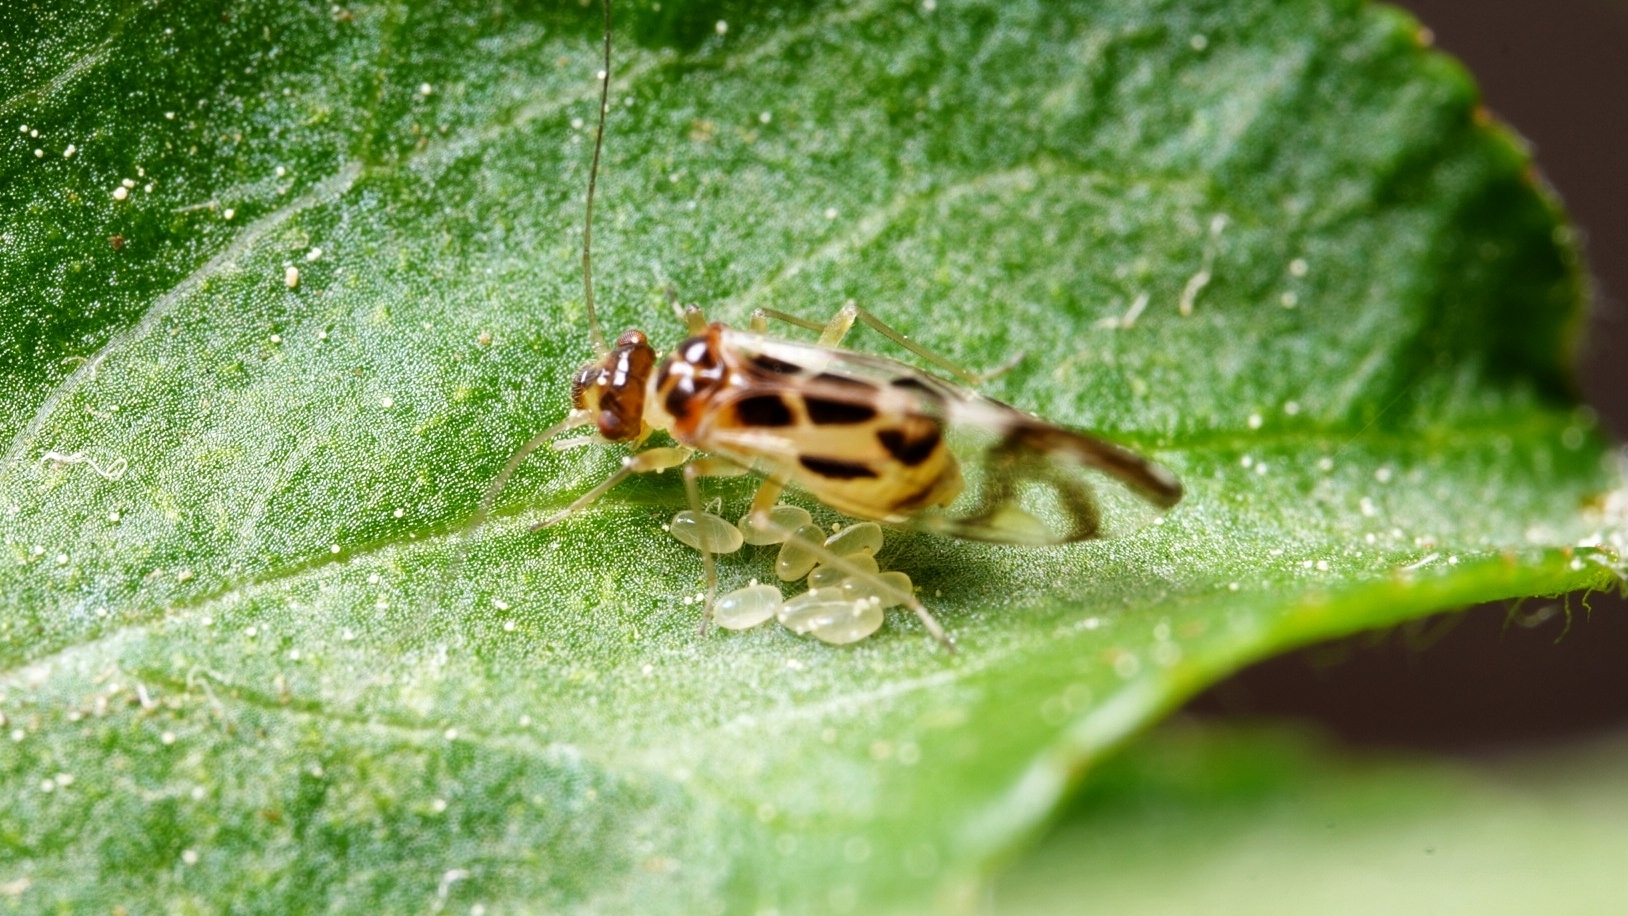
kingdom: Animalia
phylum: Arthropoda
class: Insecta
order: Psocodea
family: Stenopsocidae
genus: Graphopsocus
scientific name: Graphopsocus cruciatus
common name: Lizard bark louse
